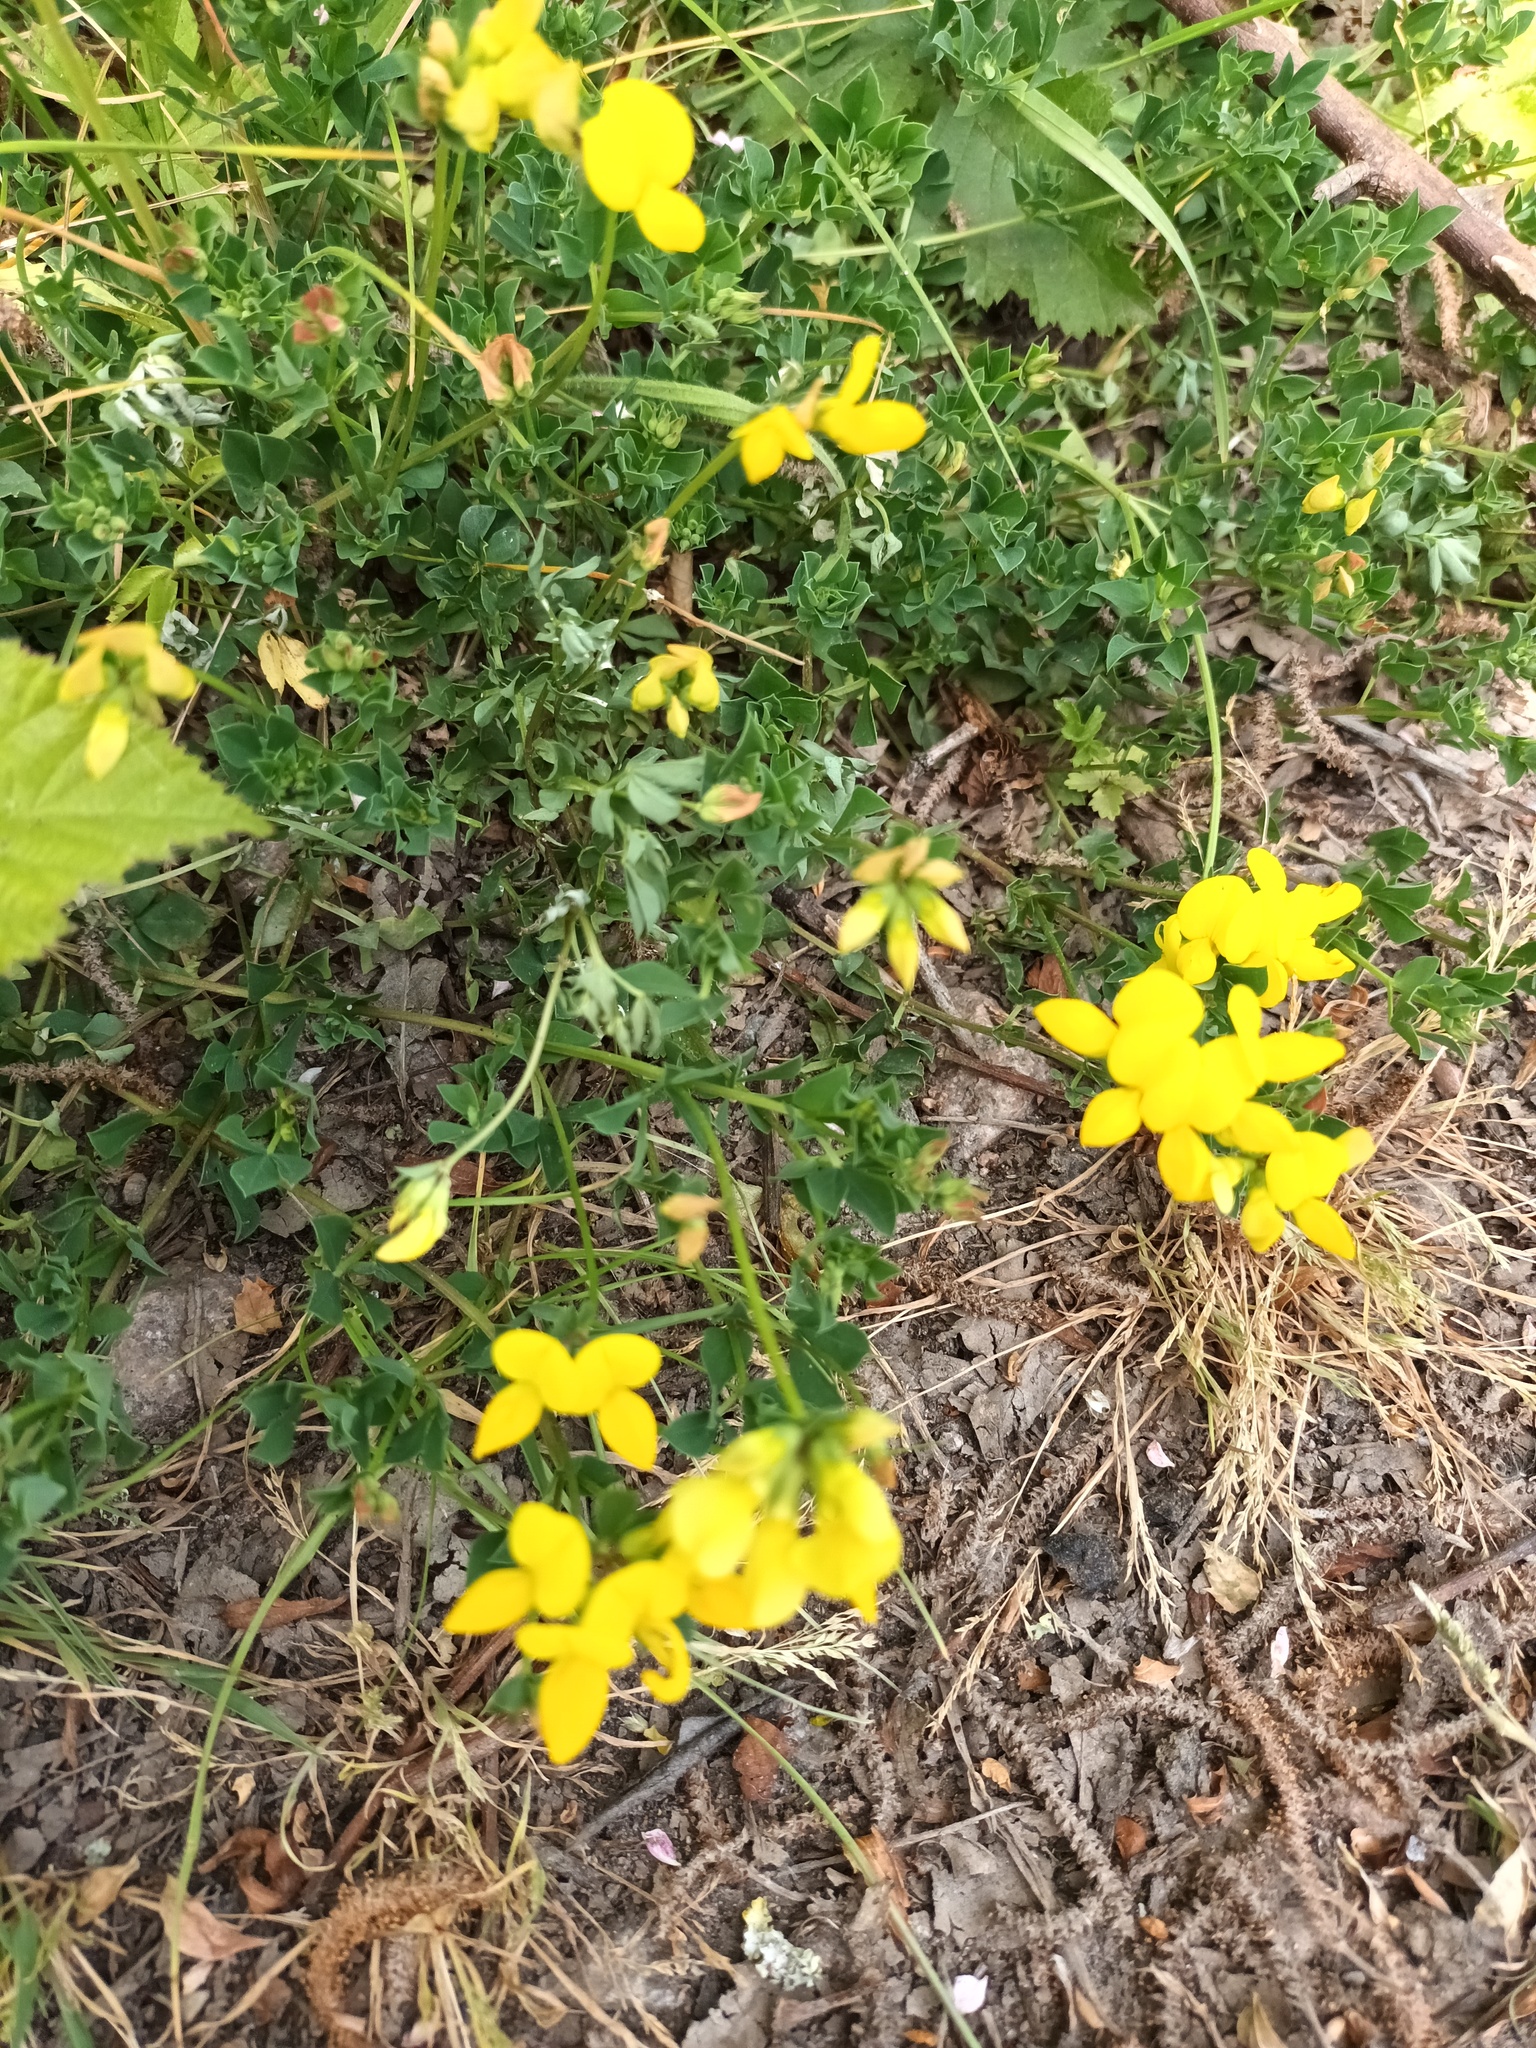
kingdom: Plantae
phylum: Tracheophyta
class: Magnoliopsida
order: Fabales
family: Fabaceae
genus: Lotus
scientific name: Lotus corniculatus
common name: Common bird's-foot-trefoil
